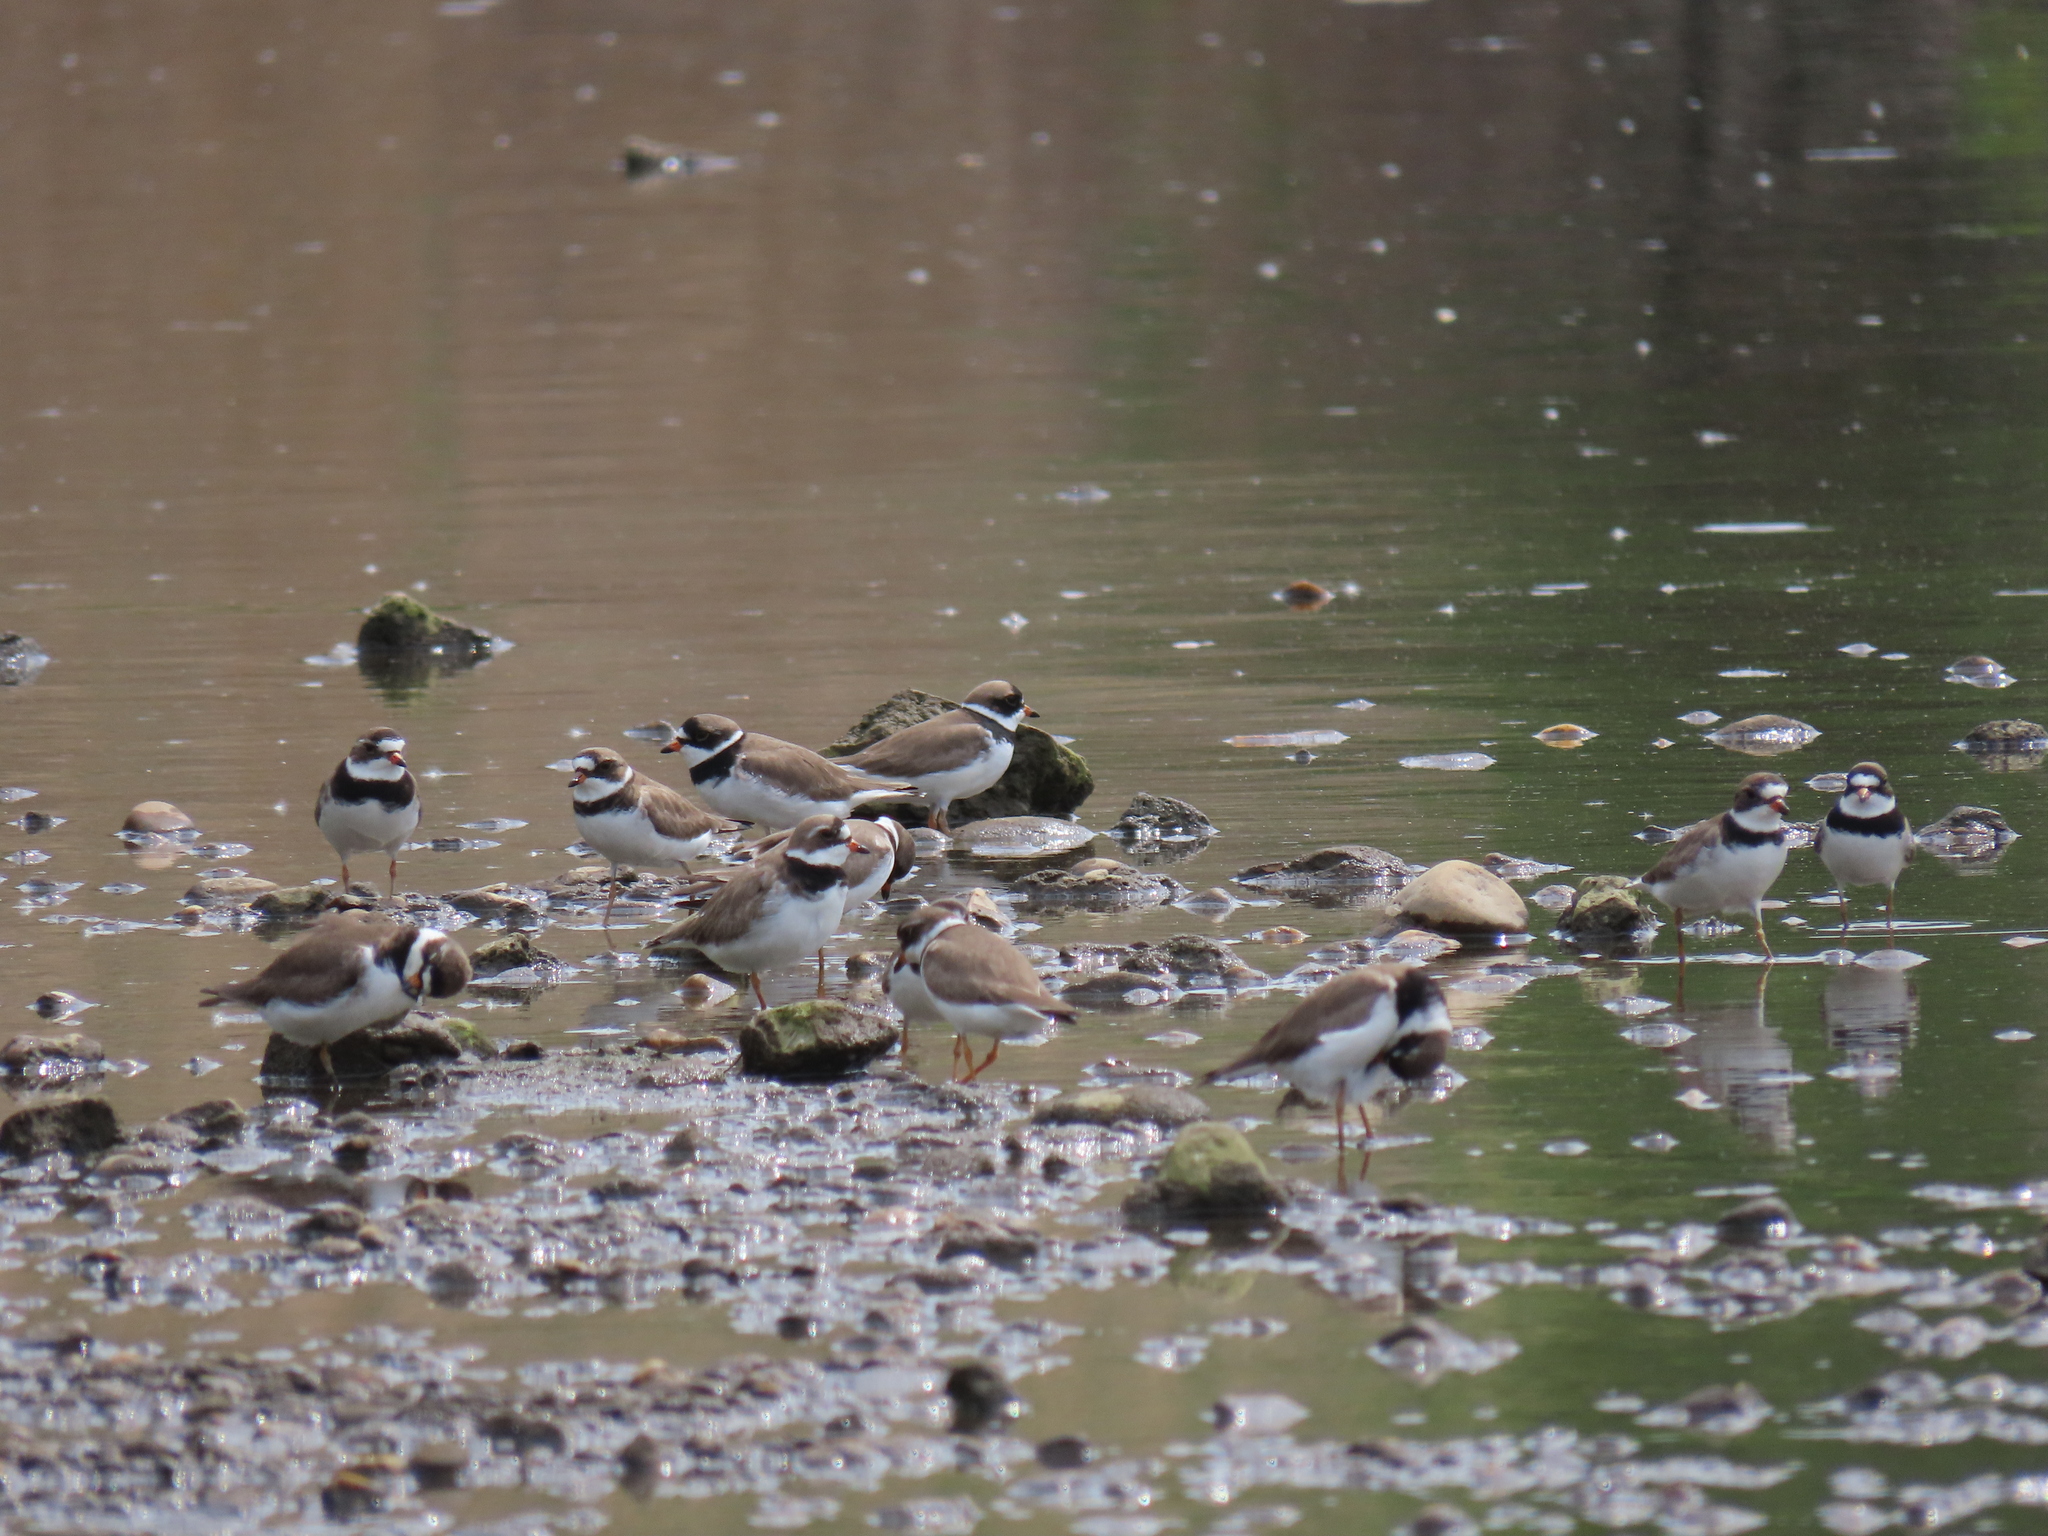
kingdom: Animalia
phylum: Chordata
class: Aves
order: Charadriiformes
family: Charadriidae
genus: Charadrius
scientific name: Charadrius semipalmatus
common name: Semipalmated plover
